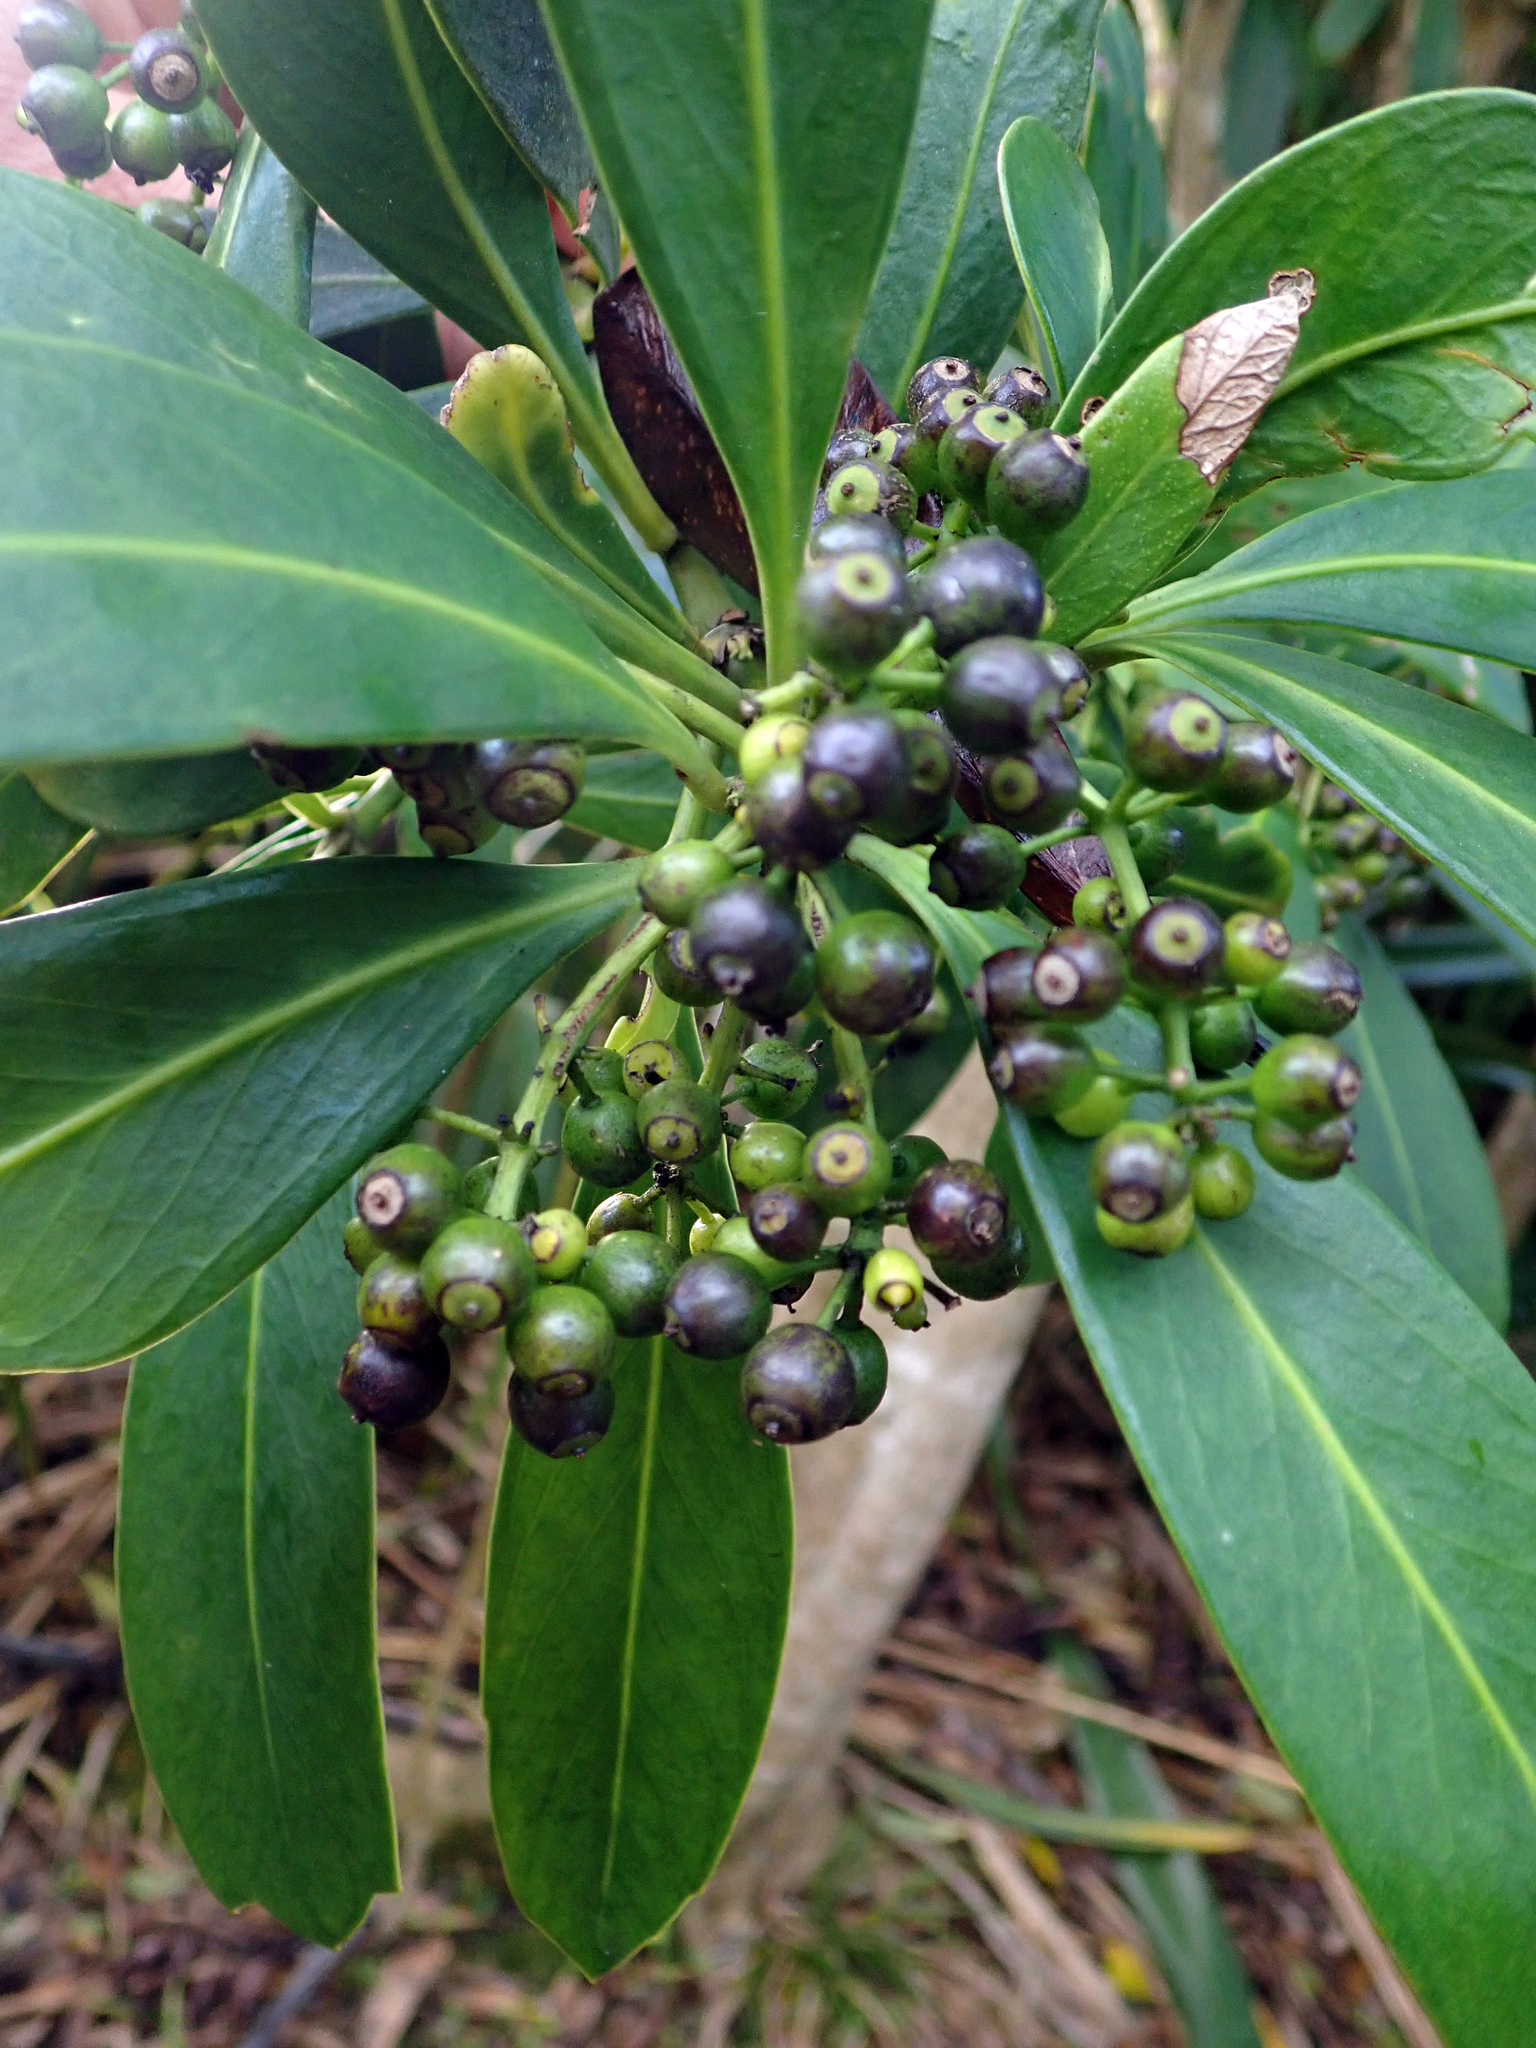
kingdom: Plantae
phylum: Tracheophyta
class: Magnoliopsida
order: Apiales
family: Araliaceae
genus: Pseudopanax
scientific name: Pseudopanax chathamicus
